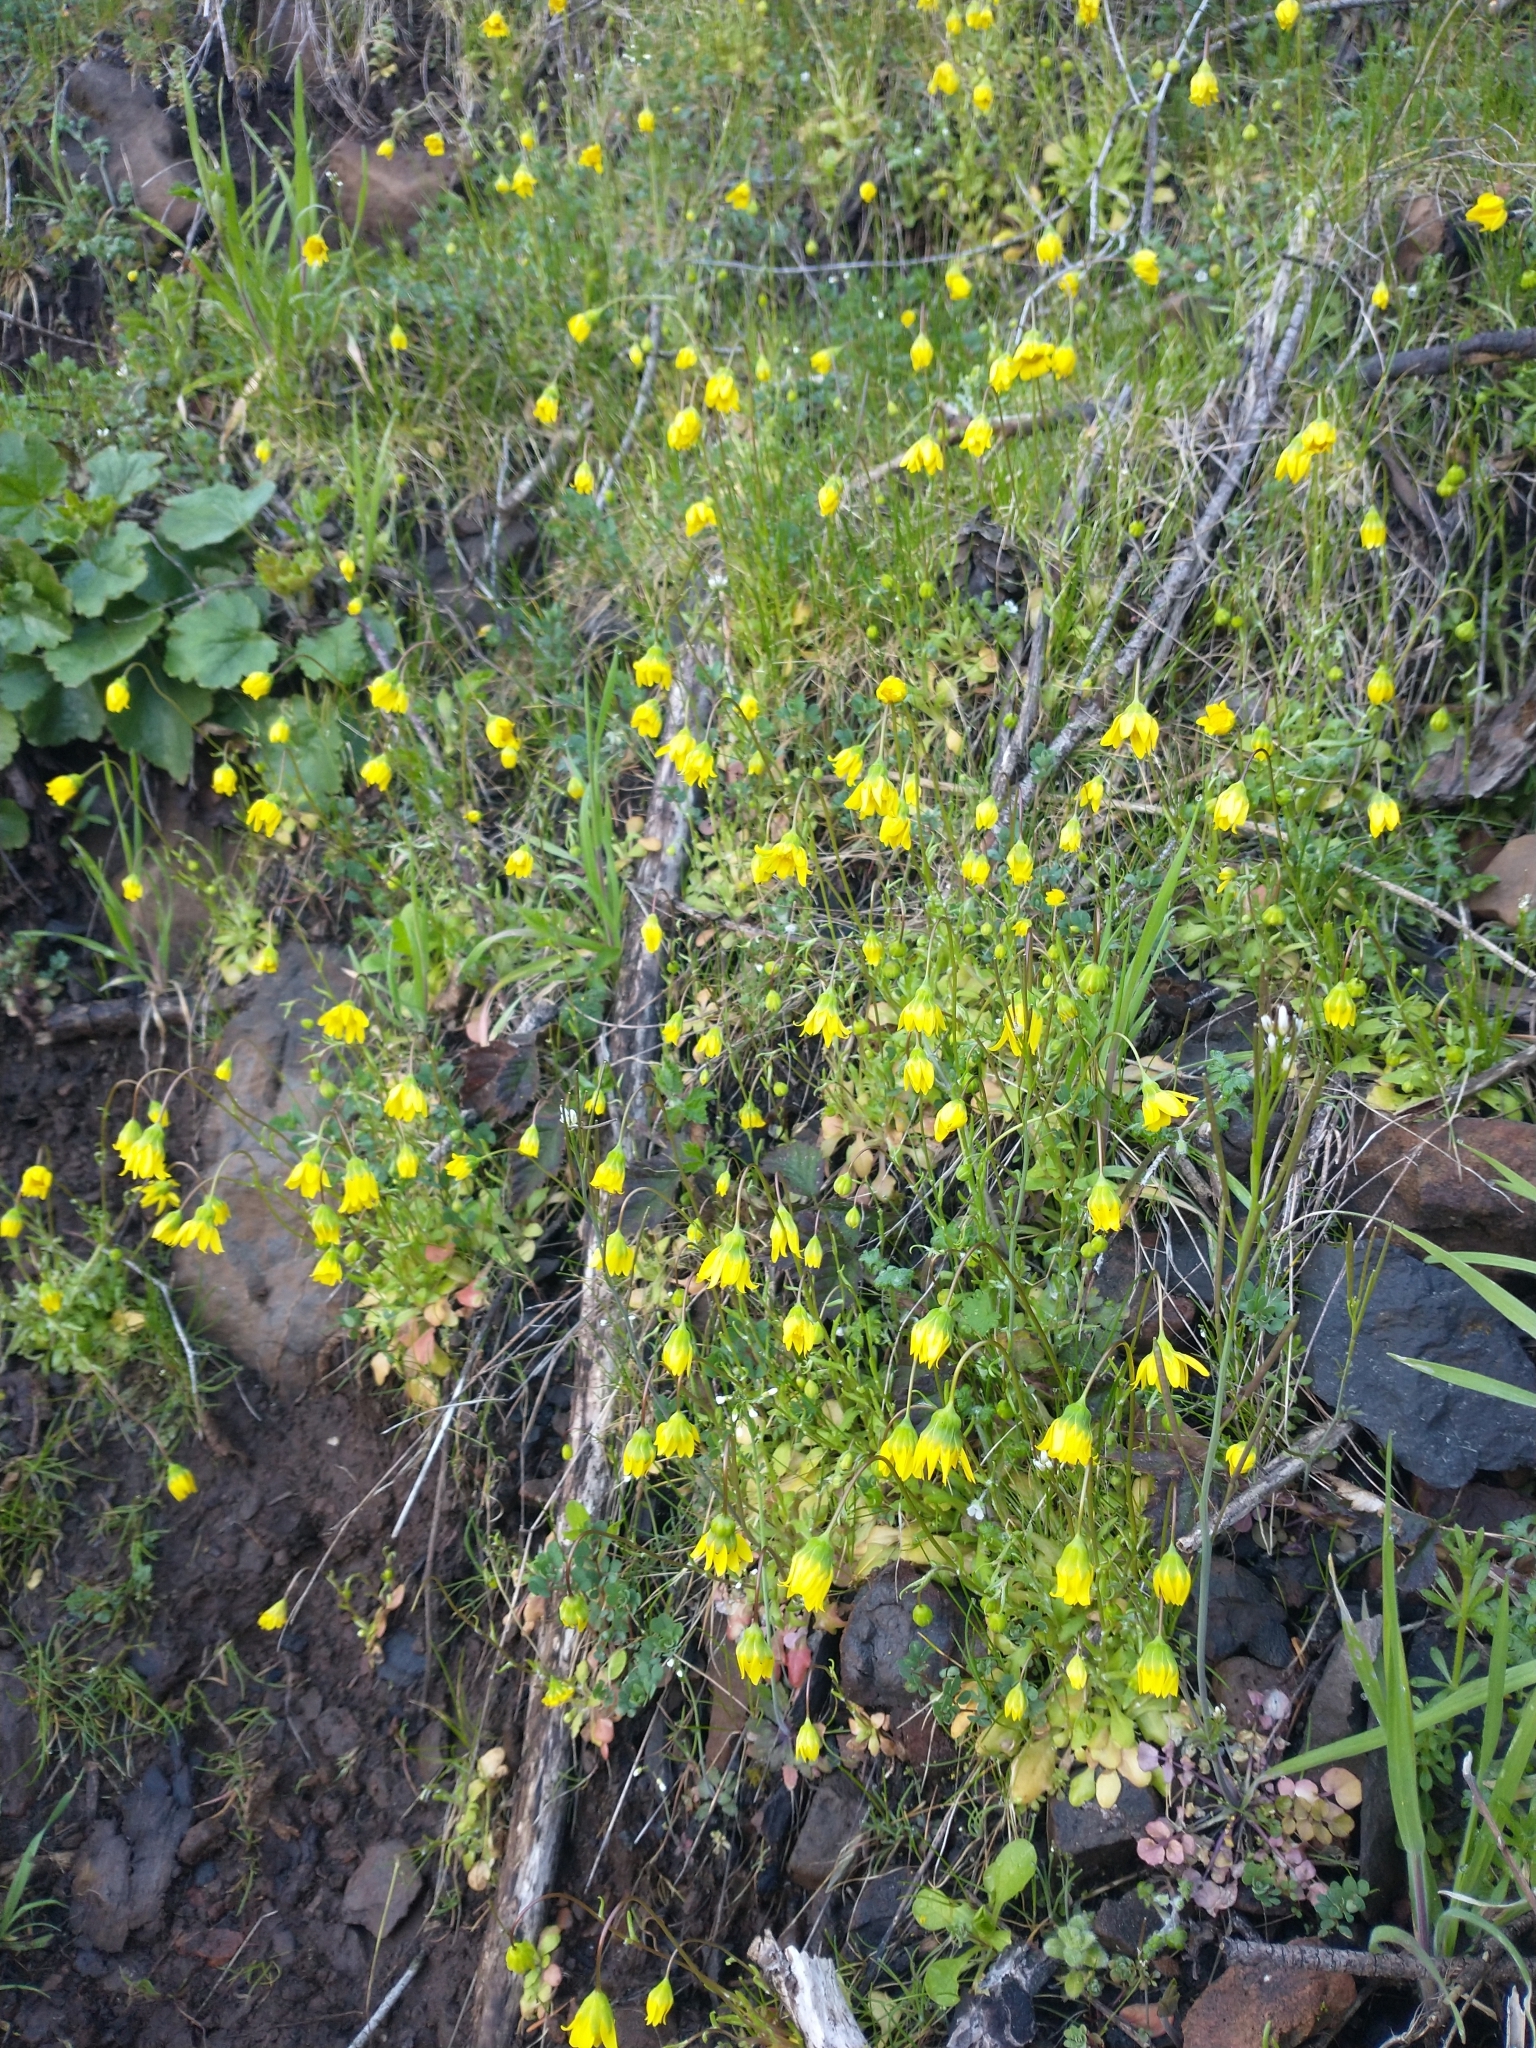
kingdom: Plantae
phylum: Tracheophyta
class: Magnoliopsida
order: Asterales
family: Asteraceae
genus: Crocidium
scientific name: Crocidium multicaule
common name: Common spring gold
